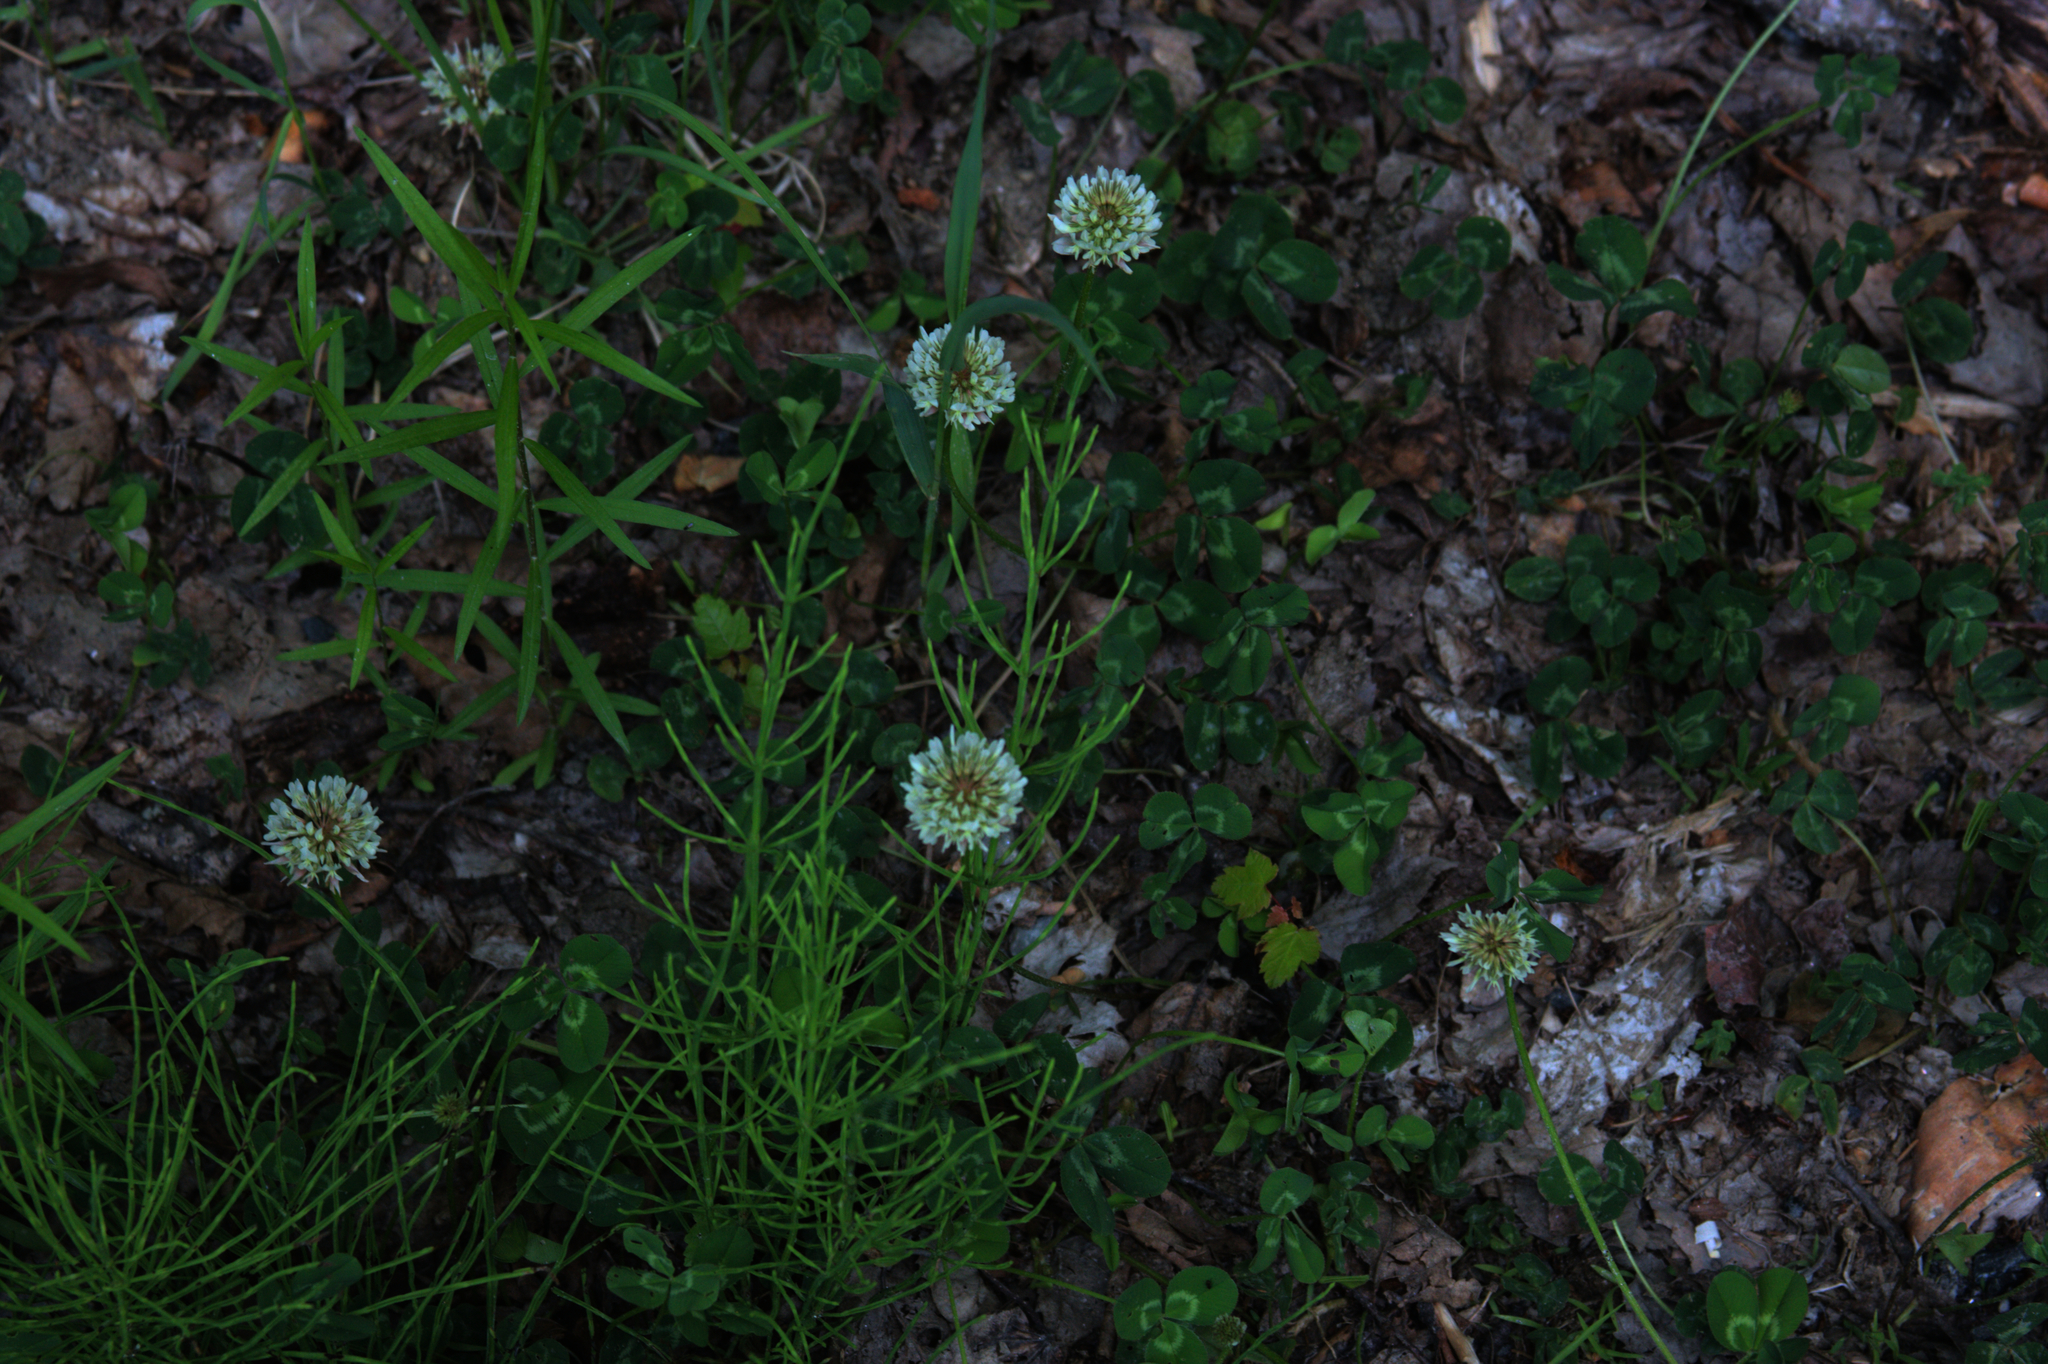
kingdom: Plantae
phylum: Tracheophyta
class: Magnoliopsida
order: Fabales
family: Fabaceae
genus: Trifolium
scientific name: Trifolium repens
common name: White clover
